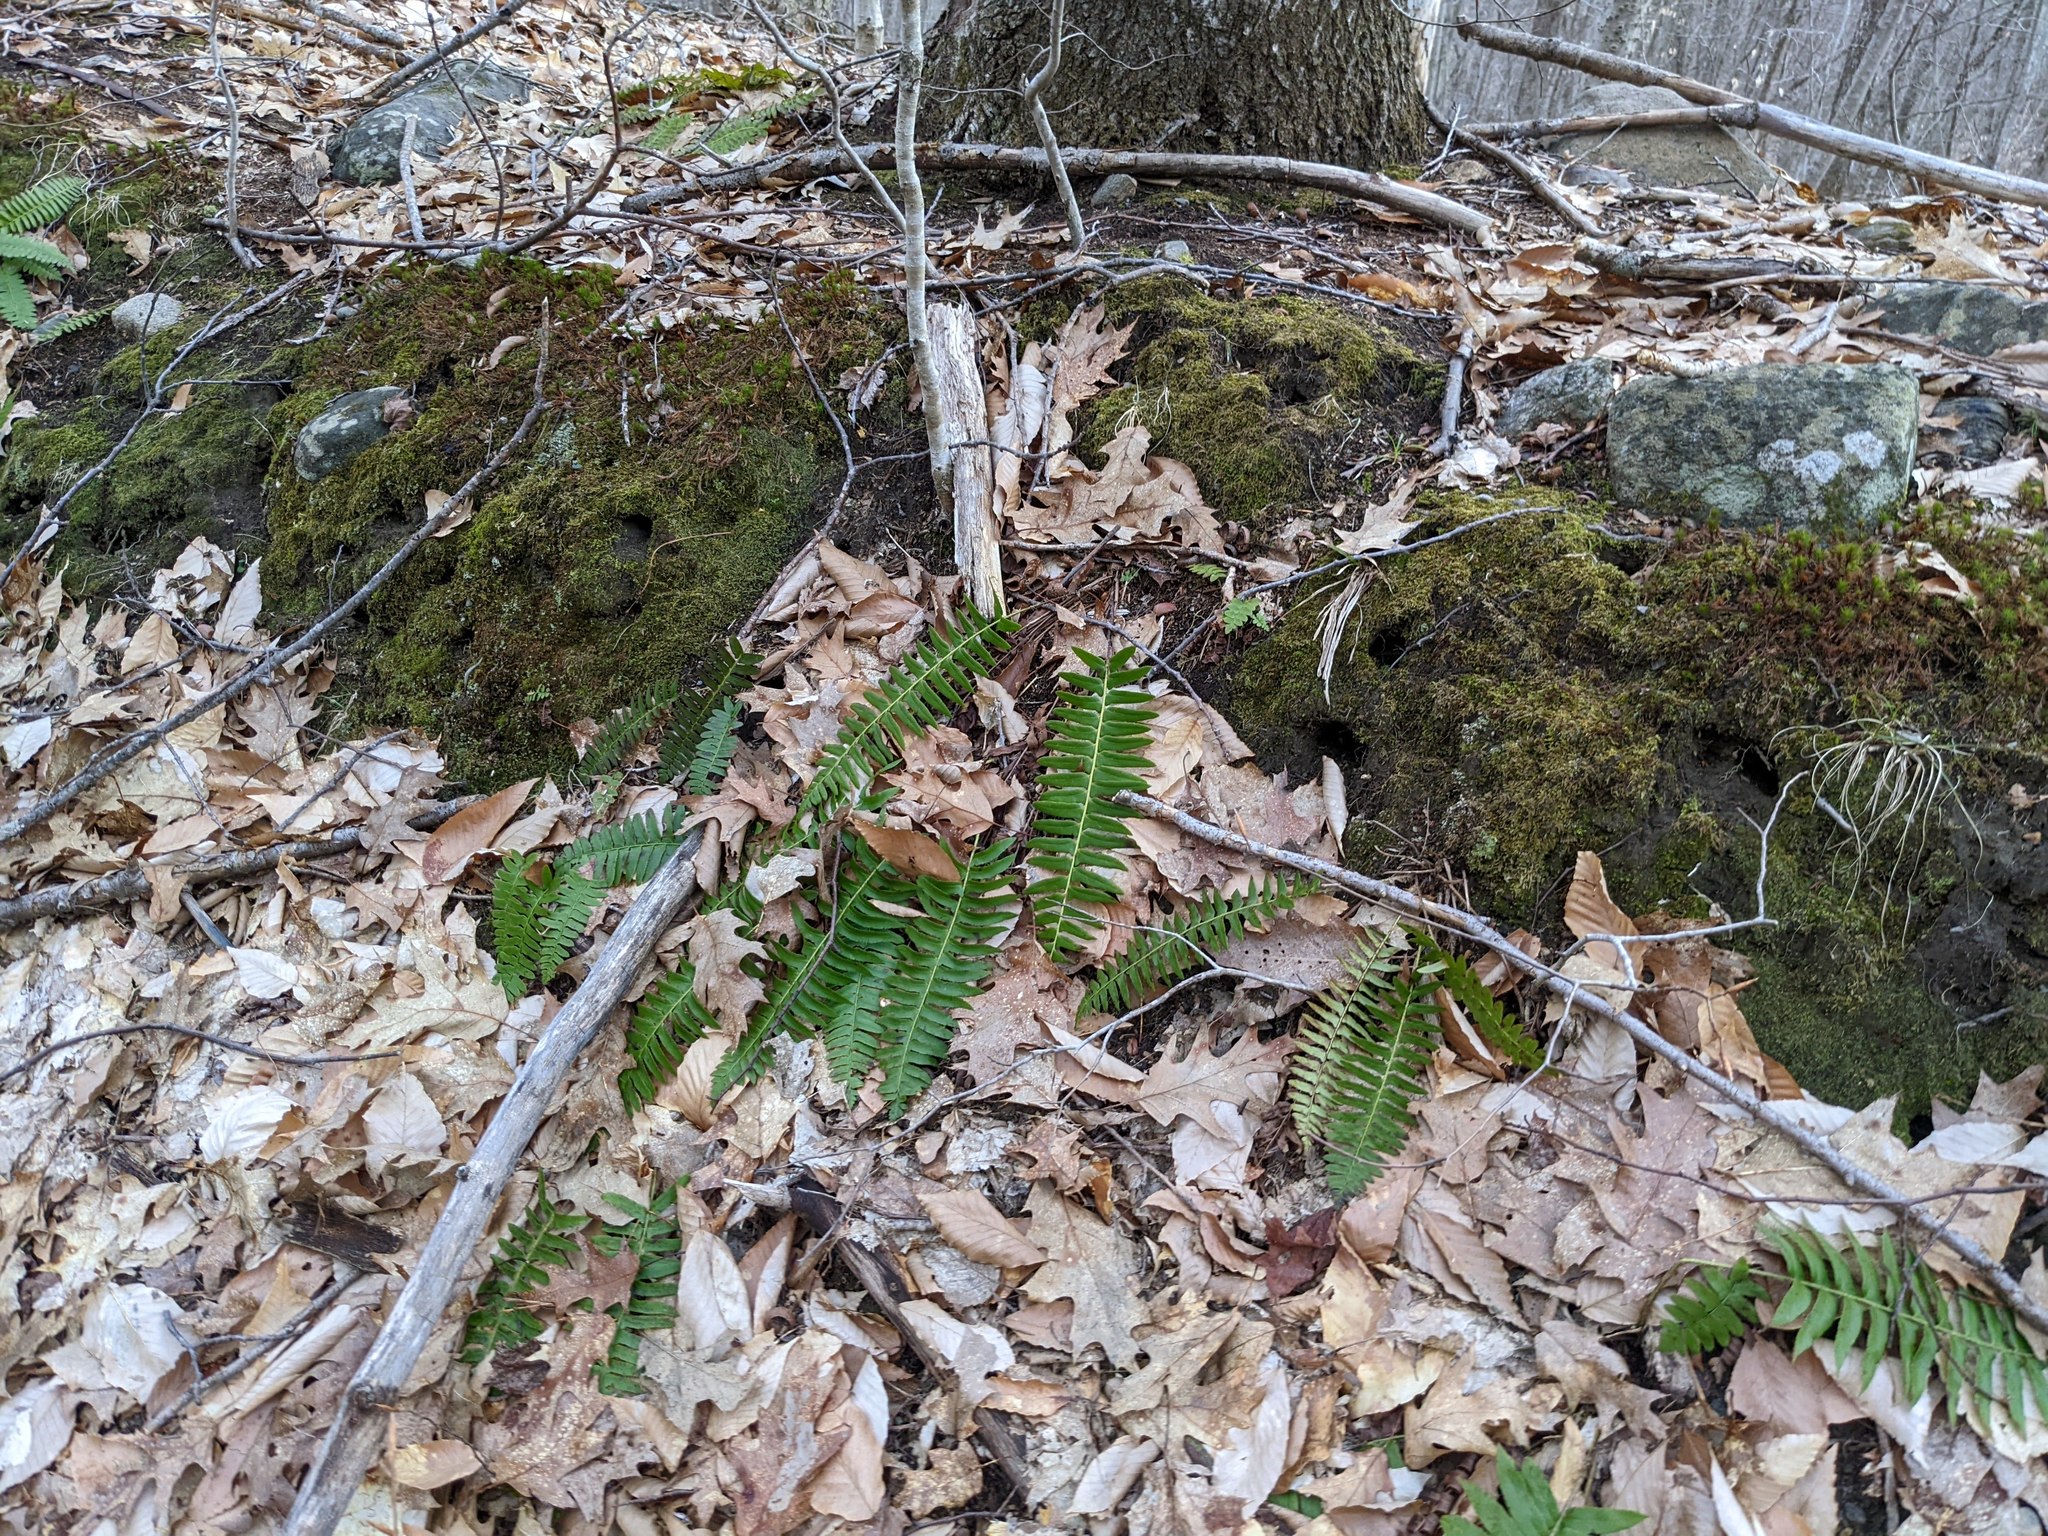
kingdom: Plantae
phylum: Tracheophyta
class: Polypodiopsida
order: Polypodiales
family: Dryopteridaceae
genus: Polystichum
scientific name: Polystichum acrostichoides
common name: Christmas fern
